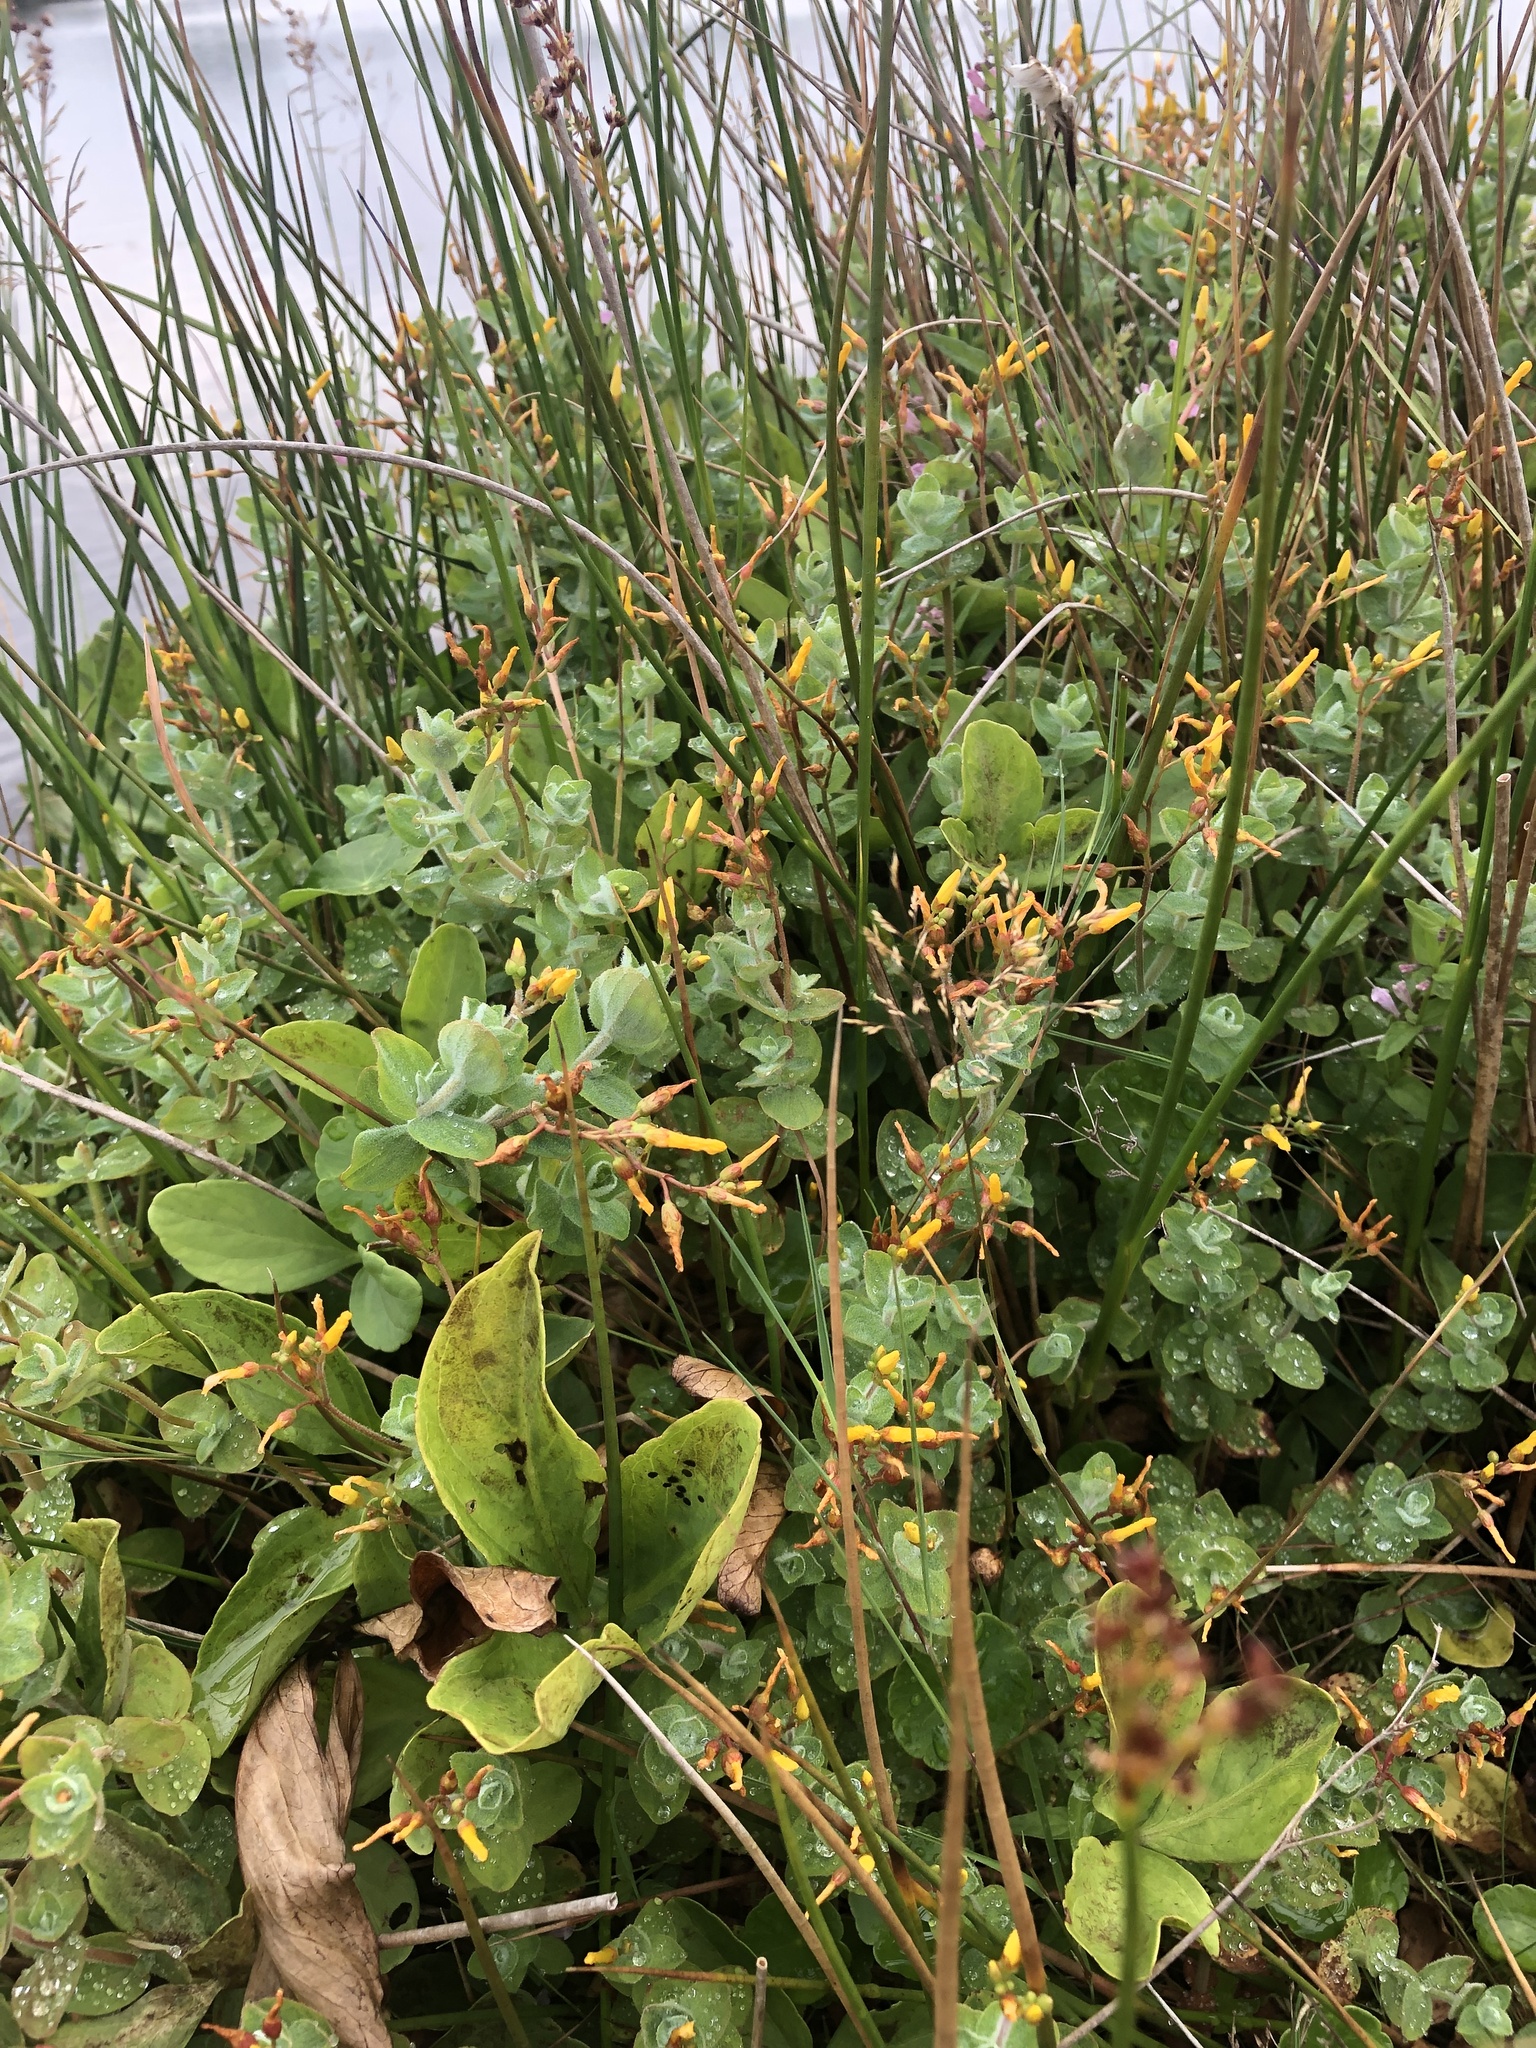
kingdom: Plantae
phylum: Tracheophyta
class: Magnoliopsida
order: Malpighiales
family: Hypericaceae
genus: Hypericum
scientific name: Hypericum elodes
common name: Marsh st. john's-wort
